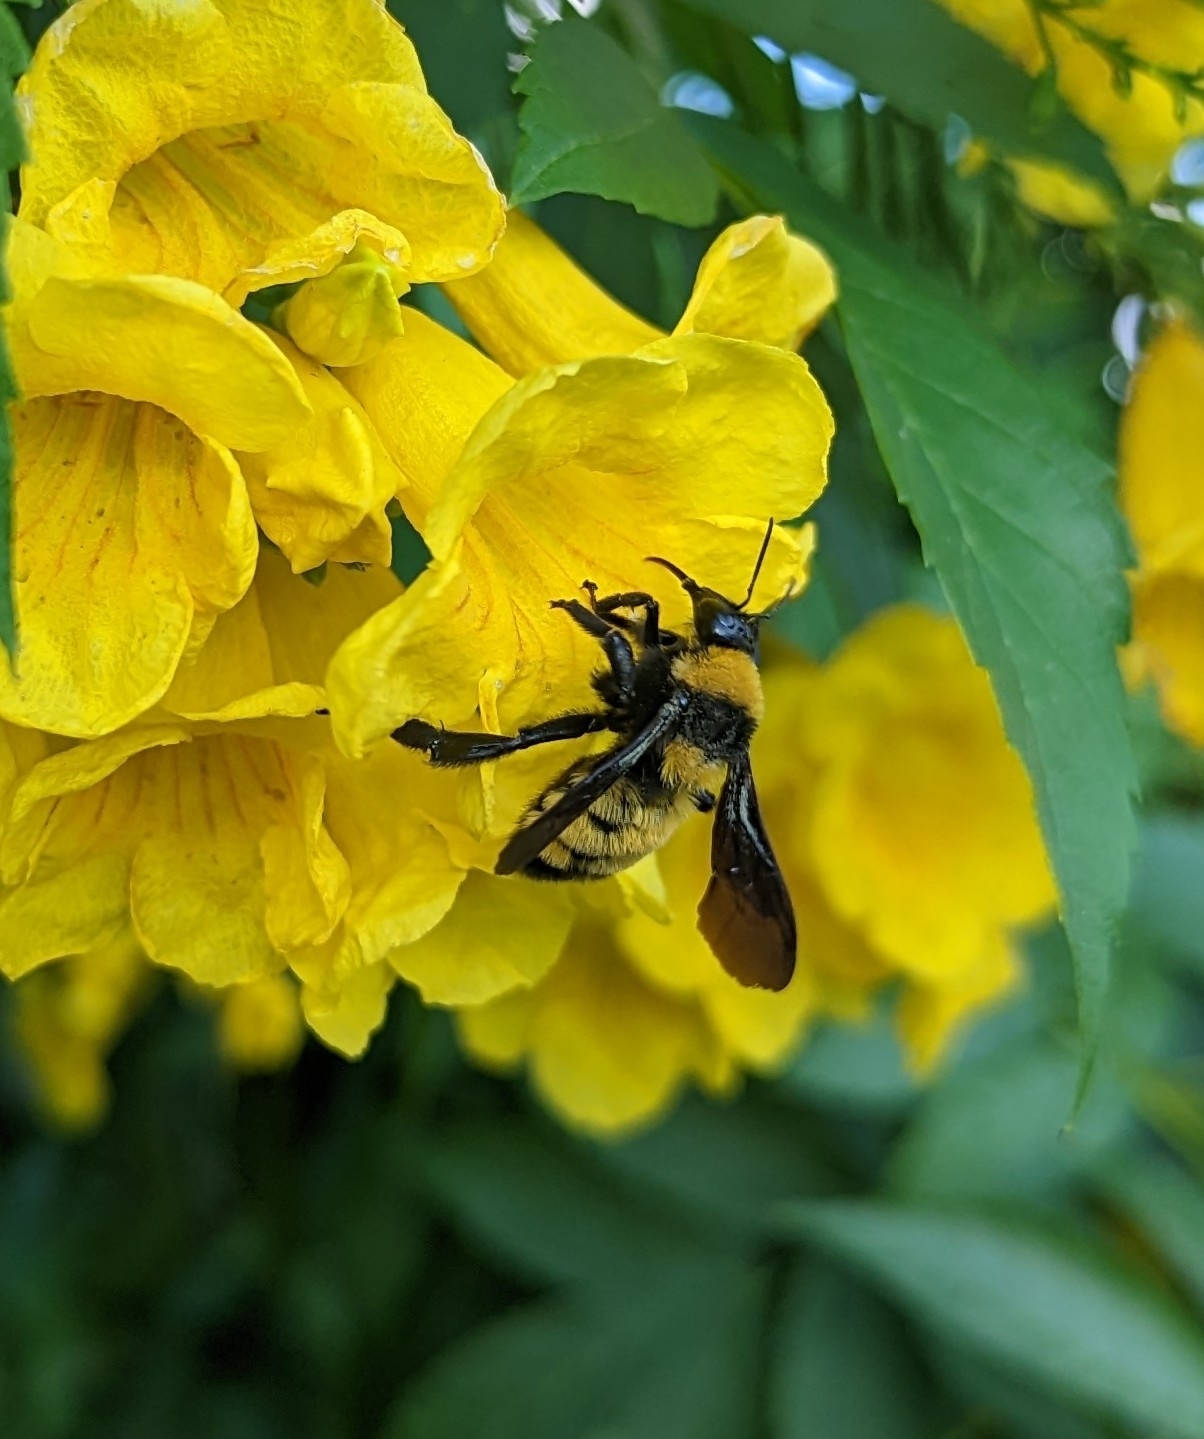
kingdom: Animalia
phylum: Arthropoda
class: Insecta
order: Hymenoptera
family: Apidae
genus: Bombus
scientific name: Bombus sonorus
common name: Sonoran bumble bee
